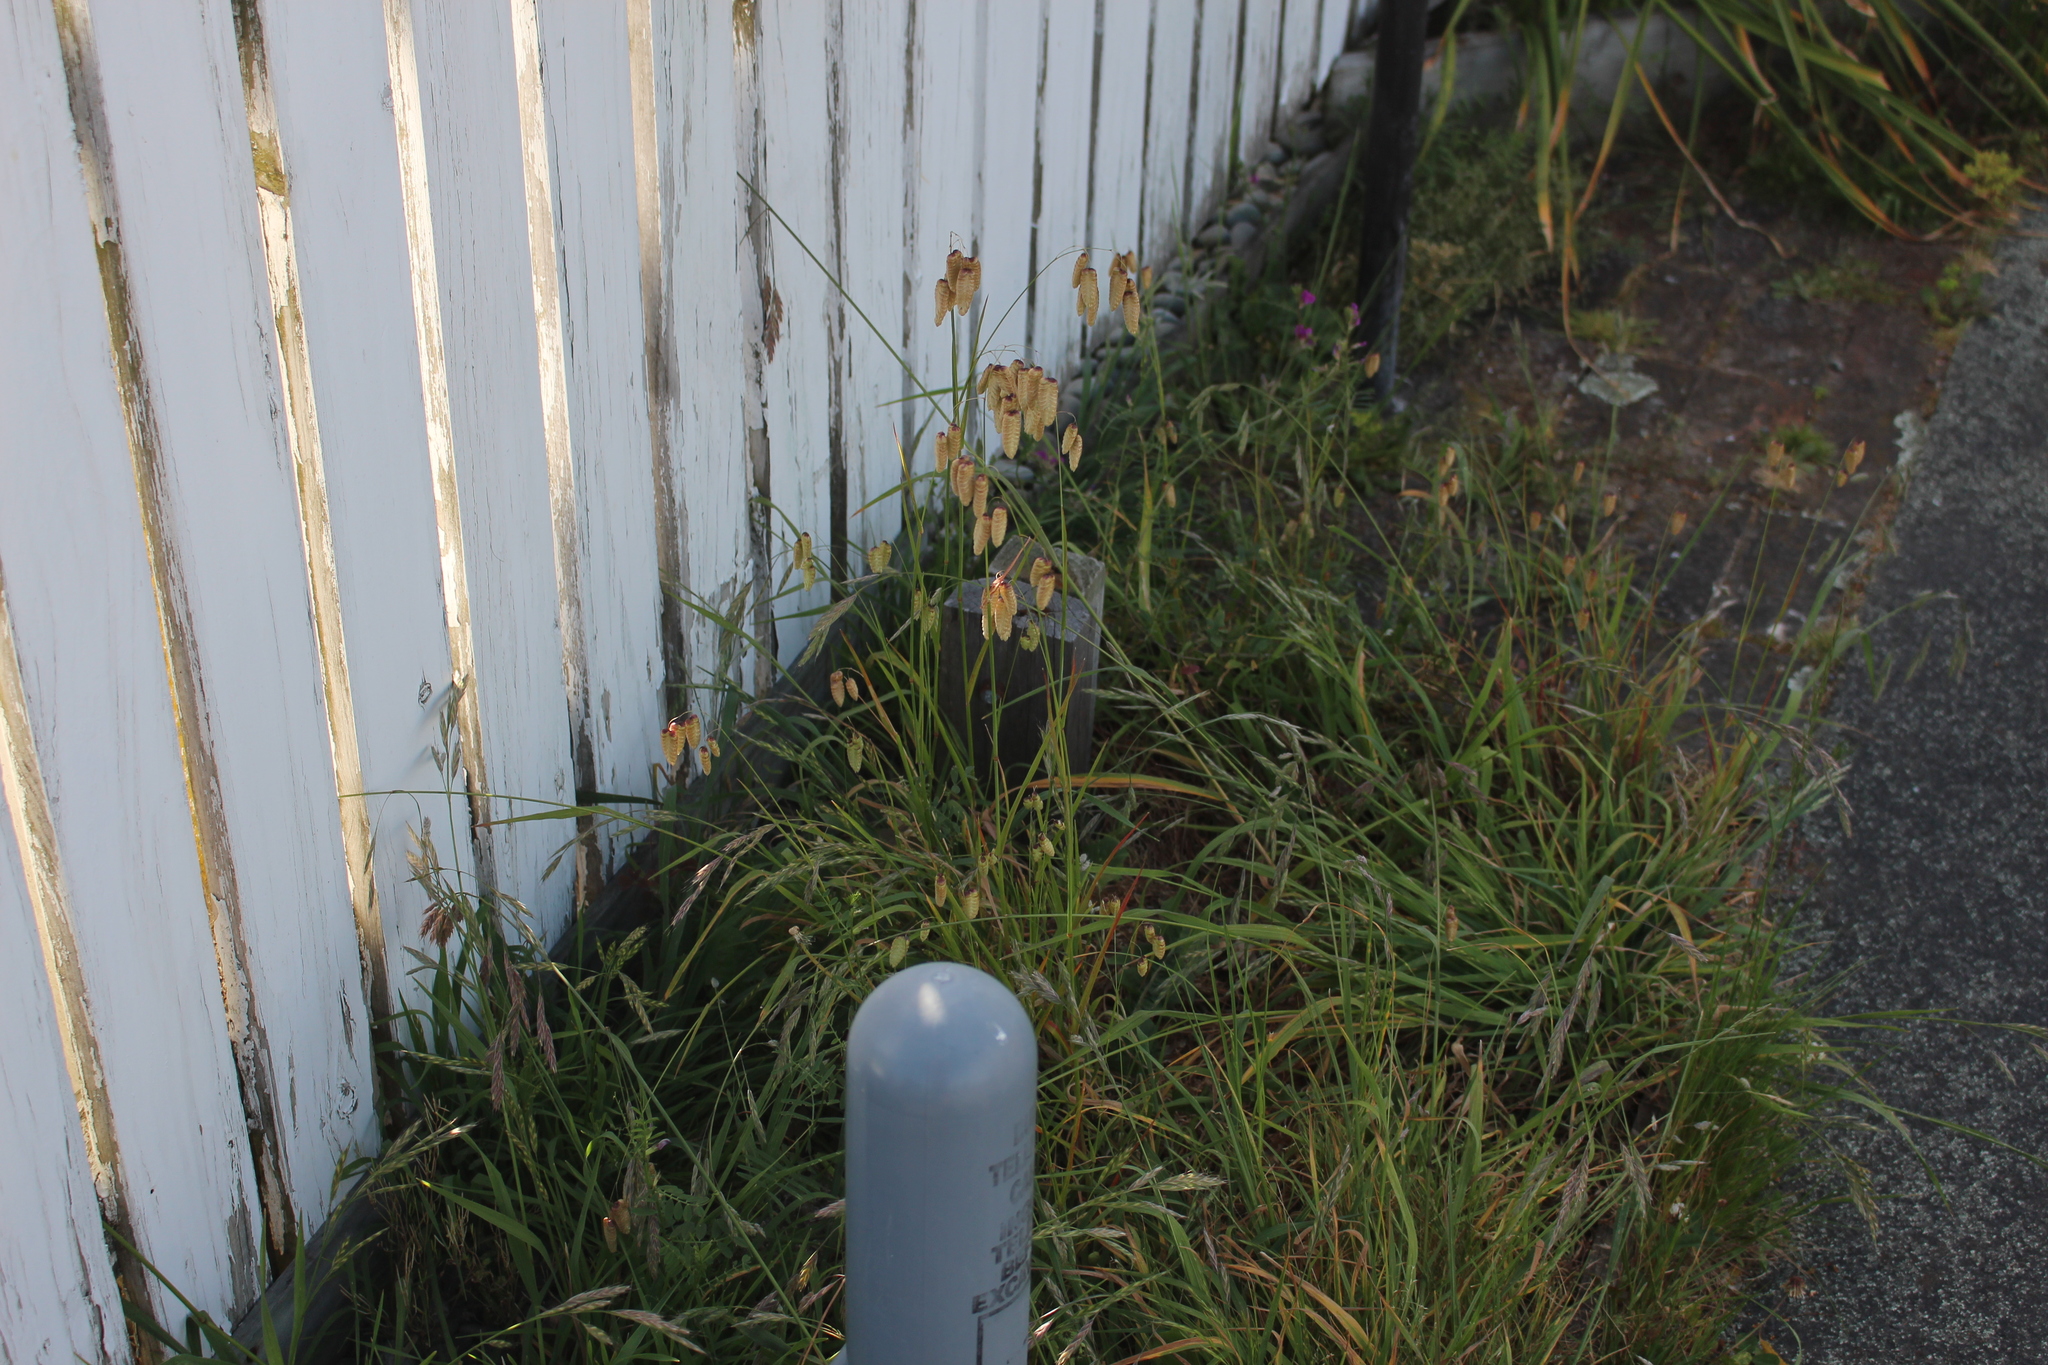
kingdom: Plantae
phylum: Tracheophyta
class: Liliopsida
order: Poales
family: Poaceae
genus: Briza
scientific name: Briza maxima
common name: Big quakinggrass
